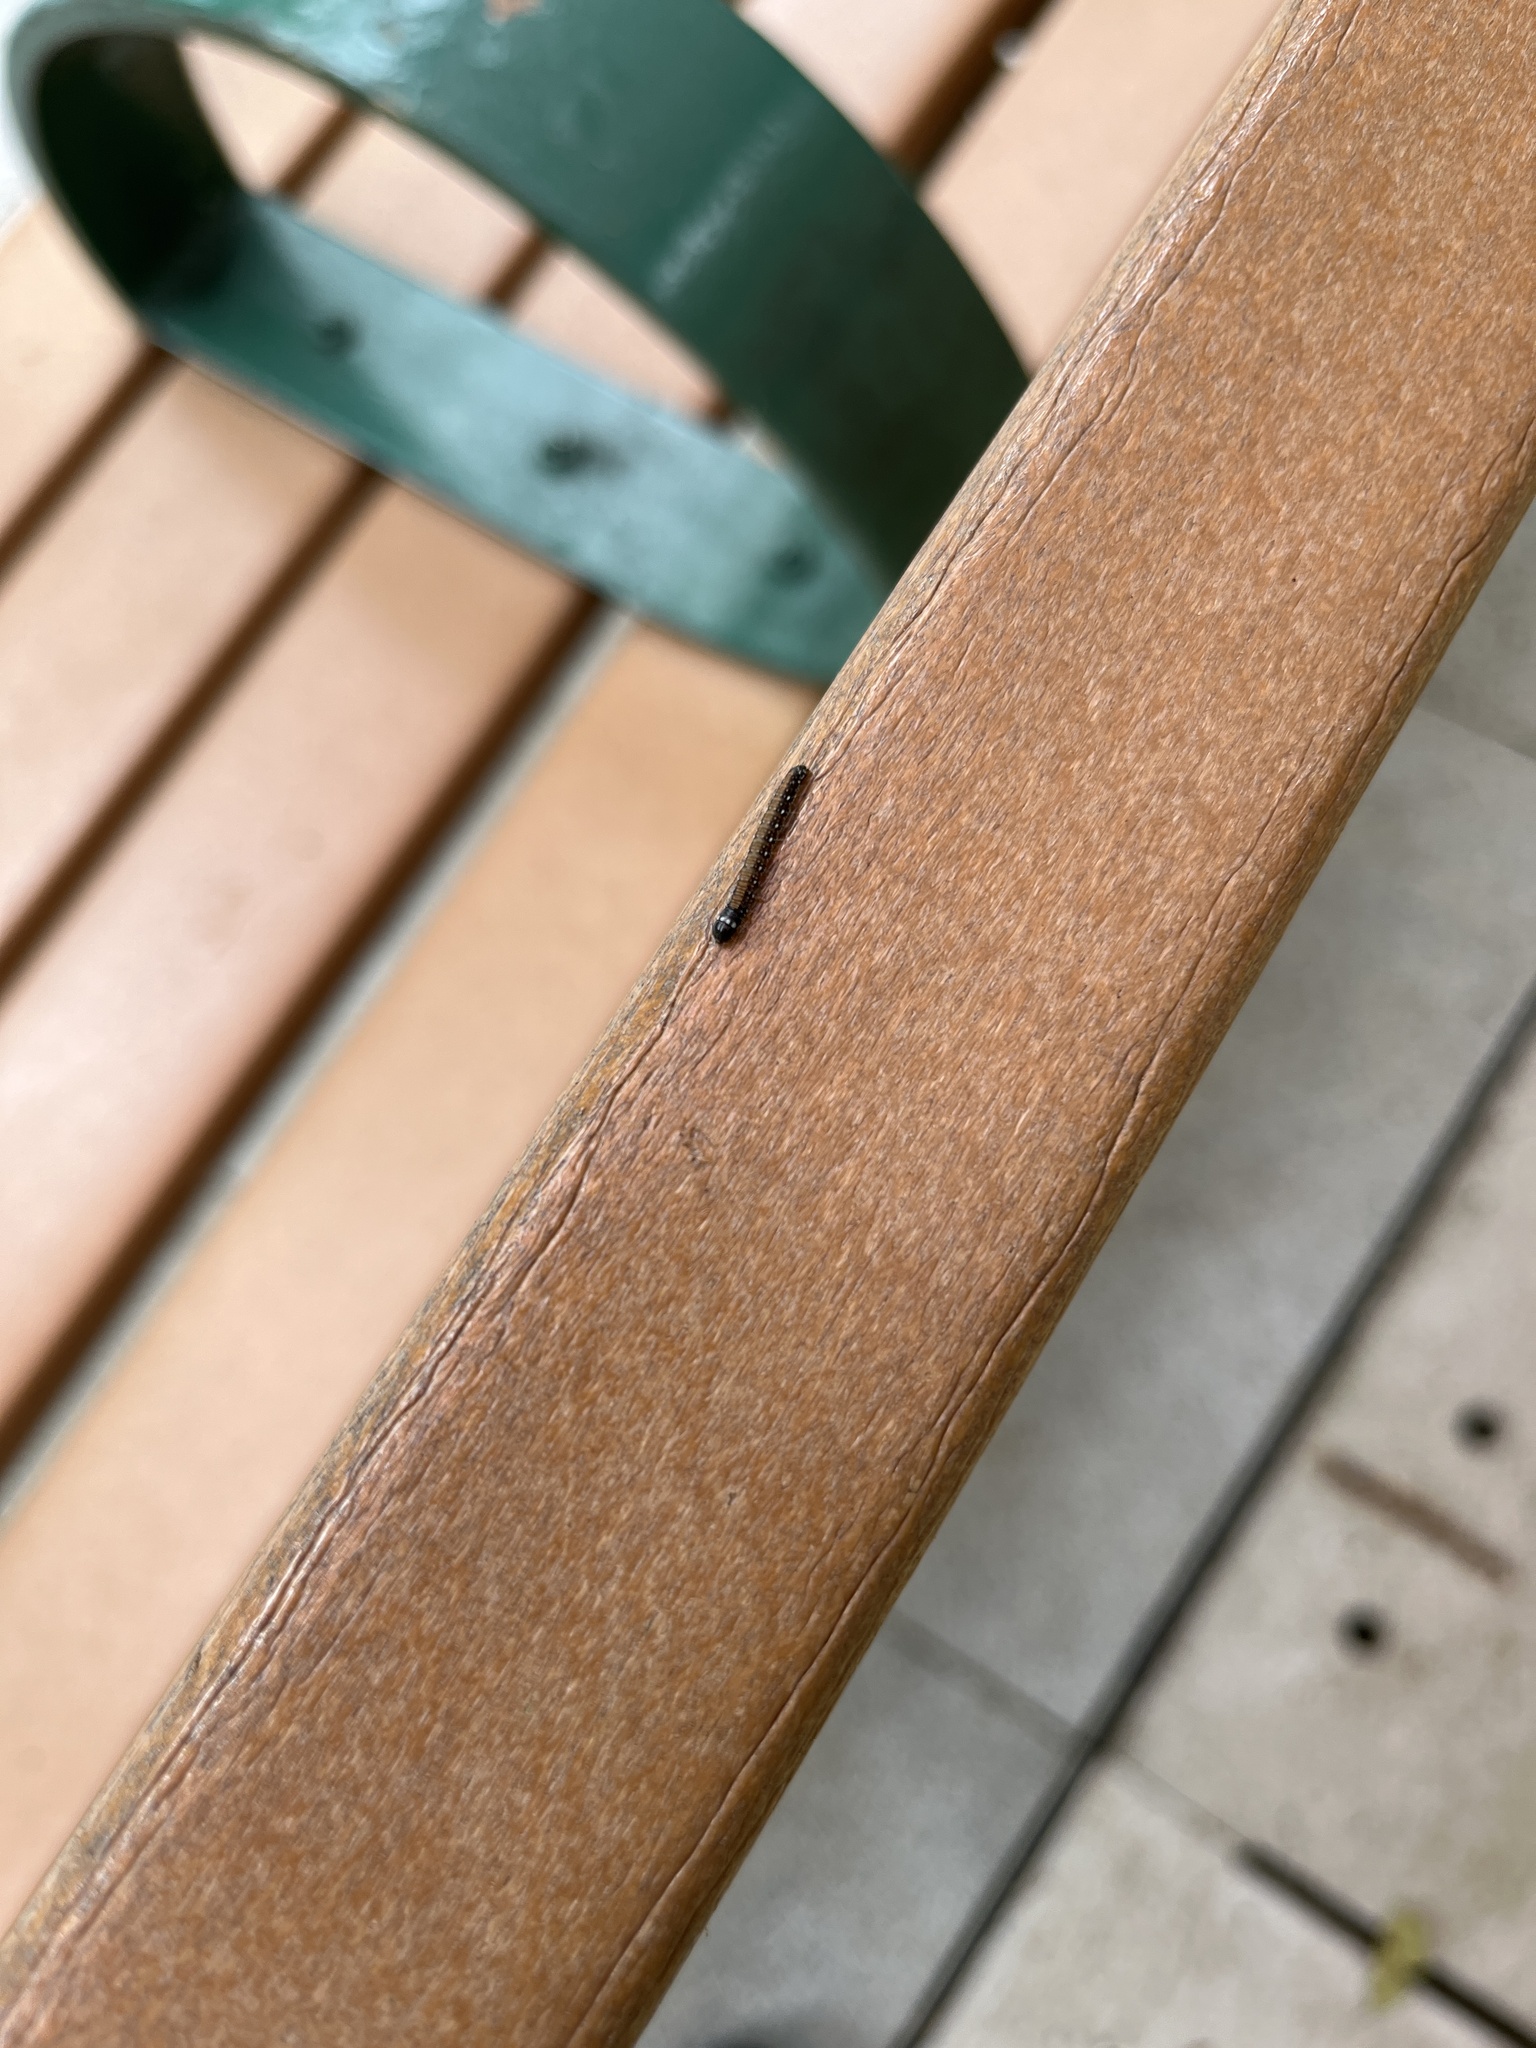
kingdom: Animalia
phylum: Arthropoda
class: Insecta
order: Lepidoptera
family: Pyralidae
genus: Locastra
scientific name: Locastra muscosalis
